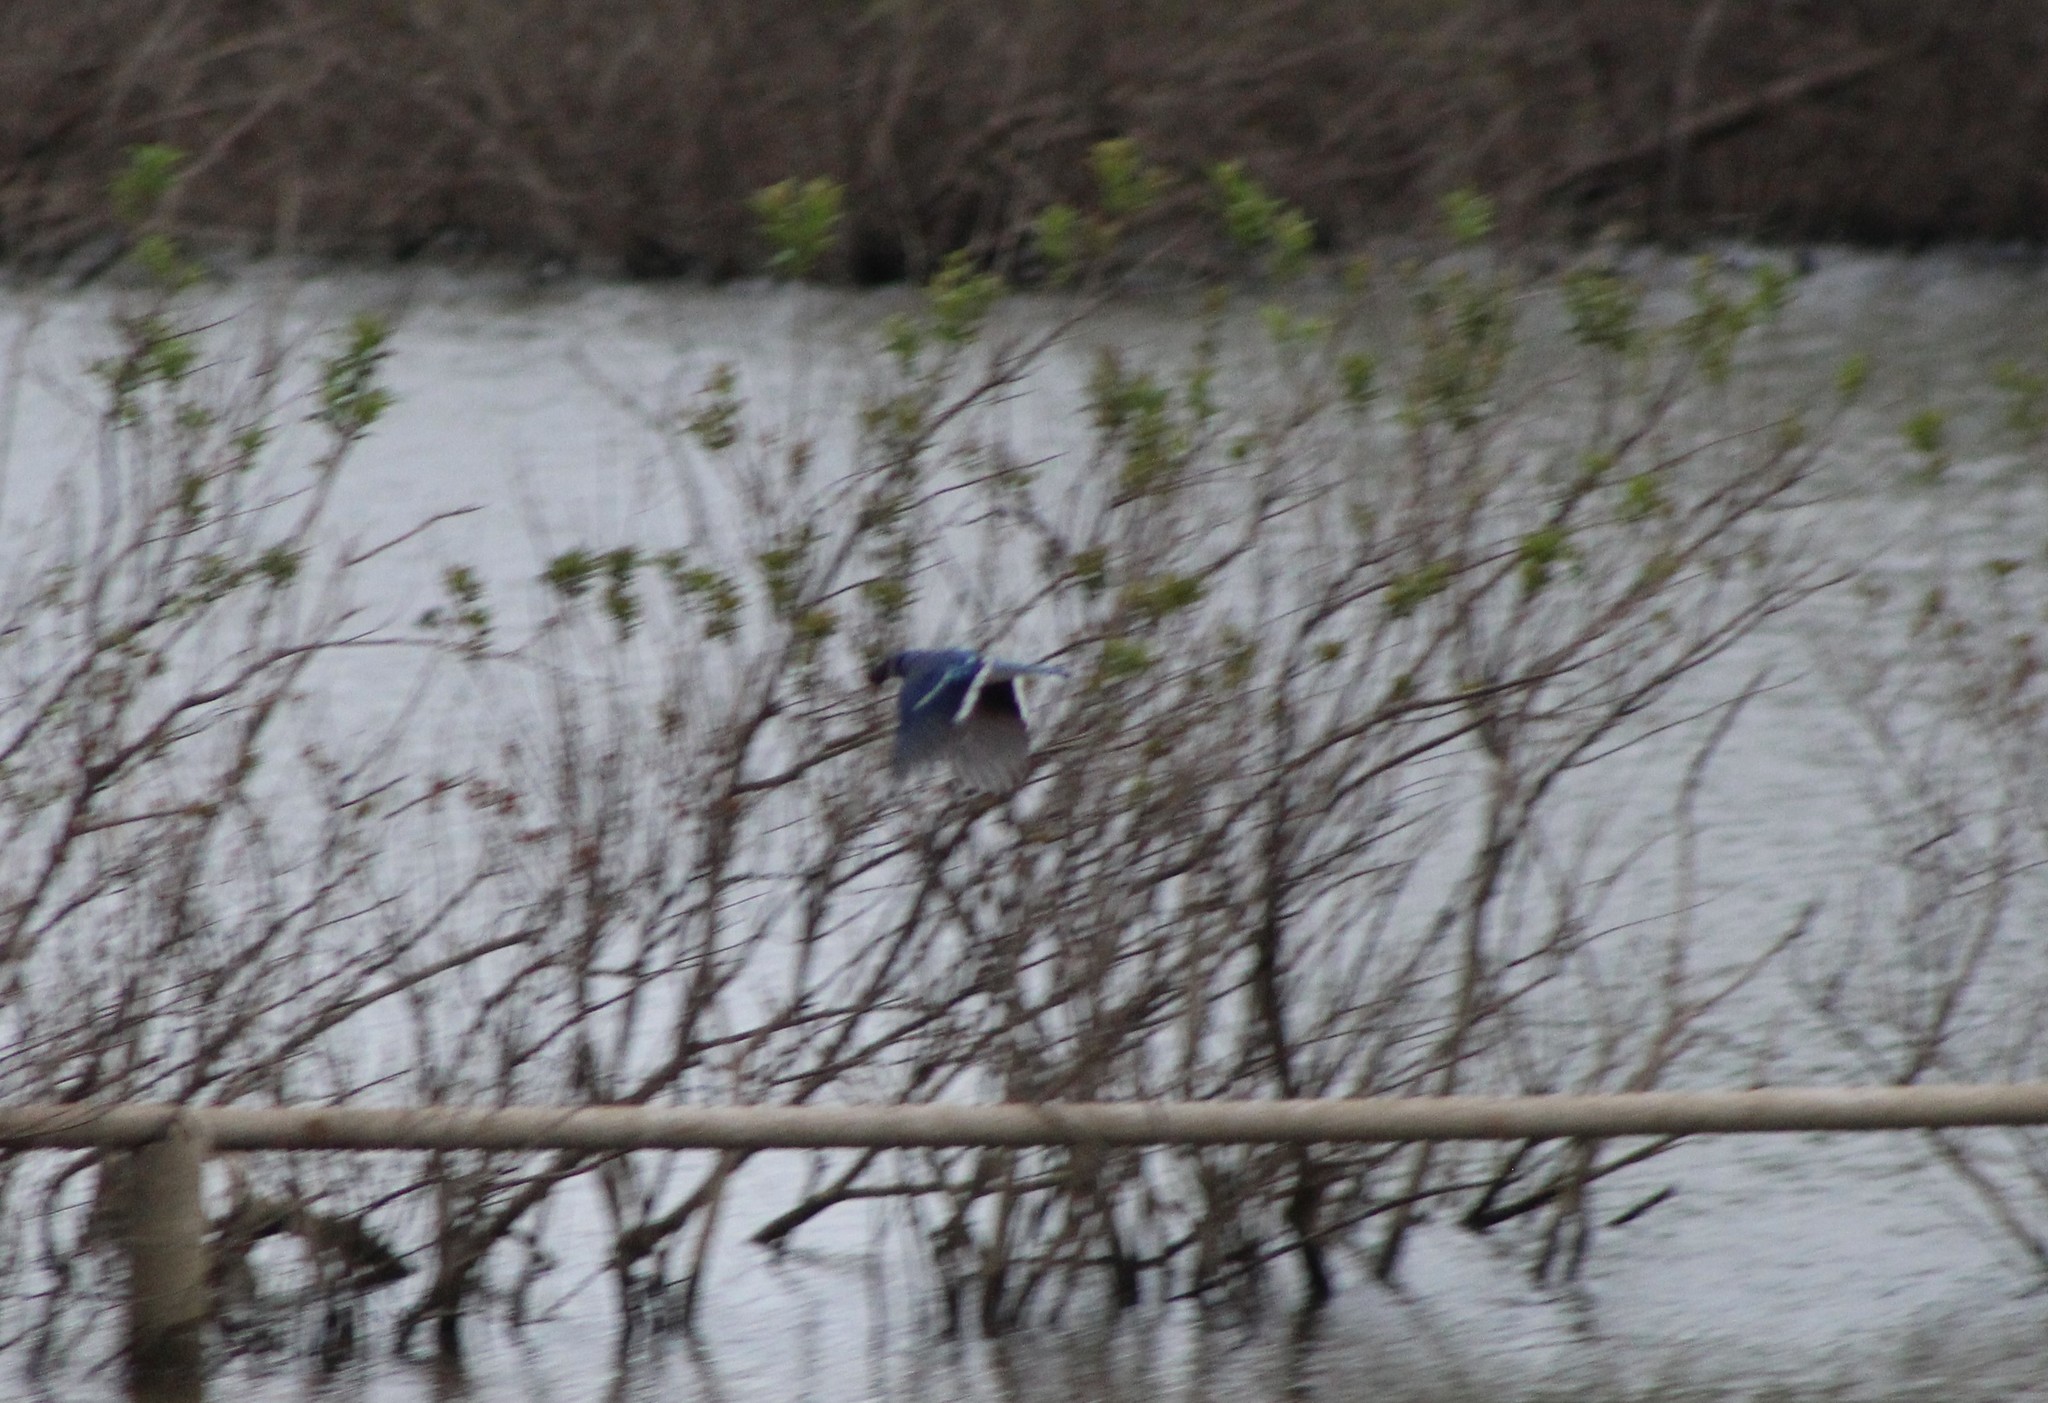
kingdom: Animalia
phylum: Chordata
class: Aves
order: Passeriformes
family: Corvidae
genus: Cyanocitta
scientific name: Cyanocitta cristata
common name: Blue jay
